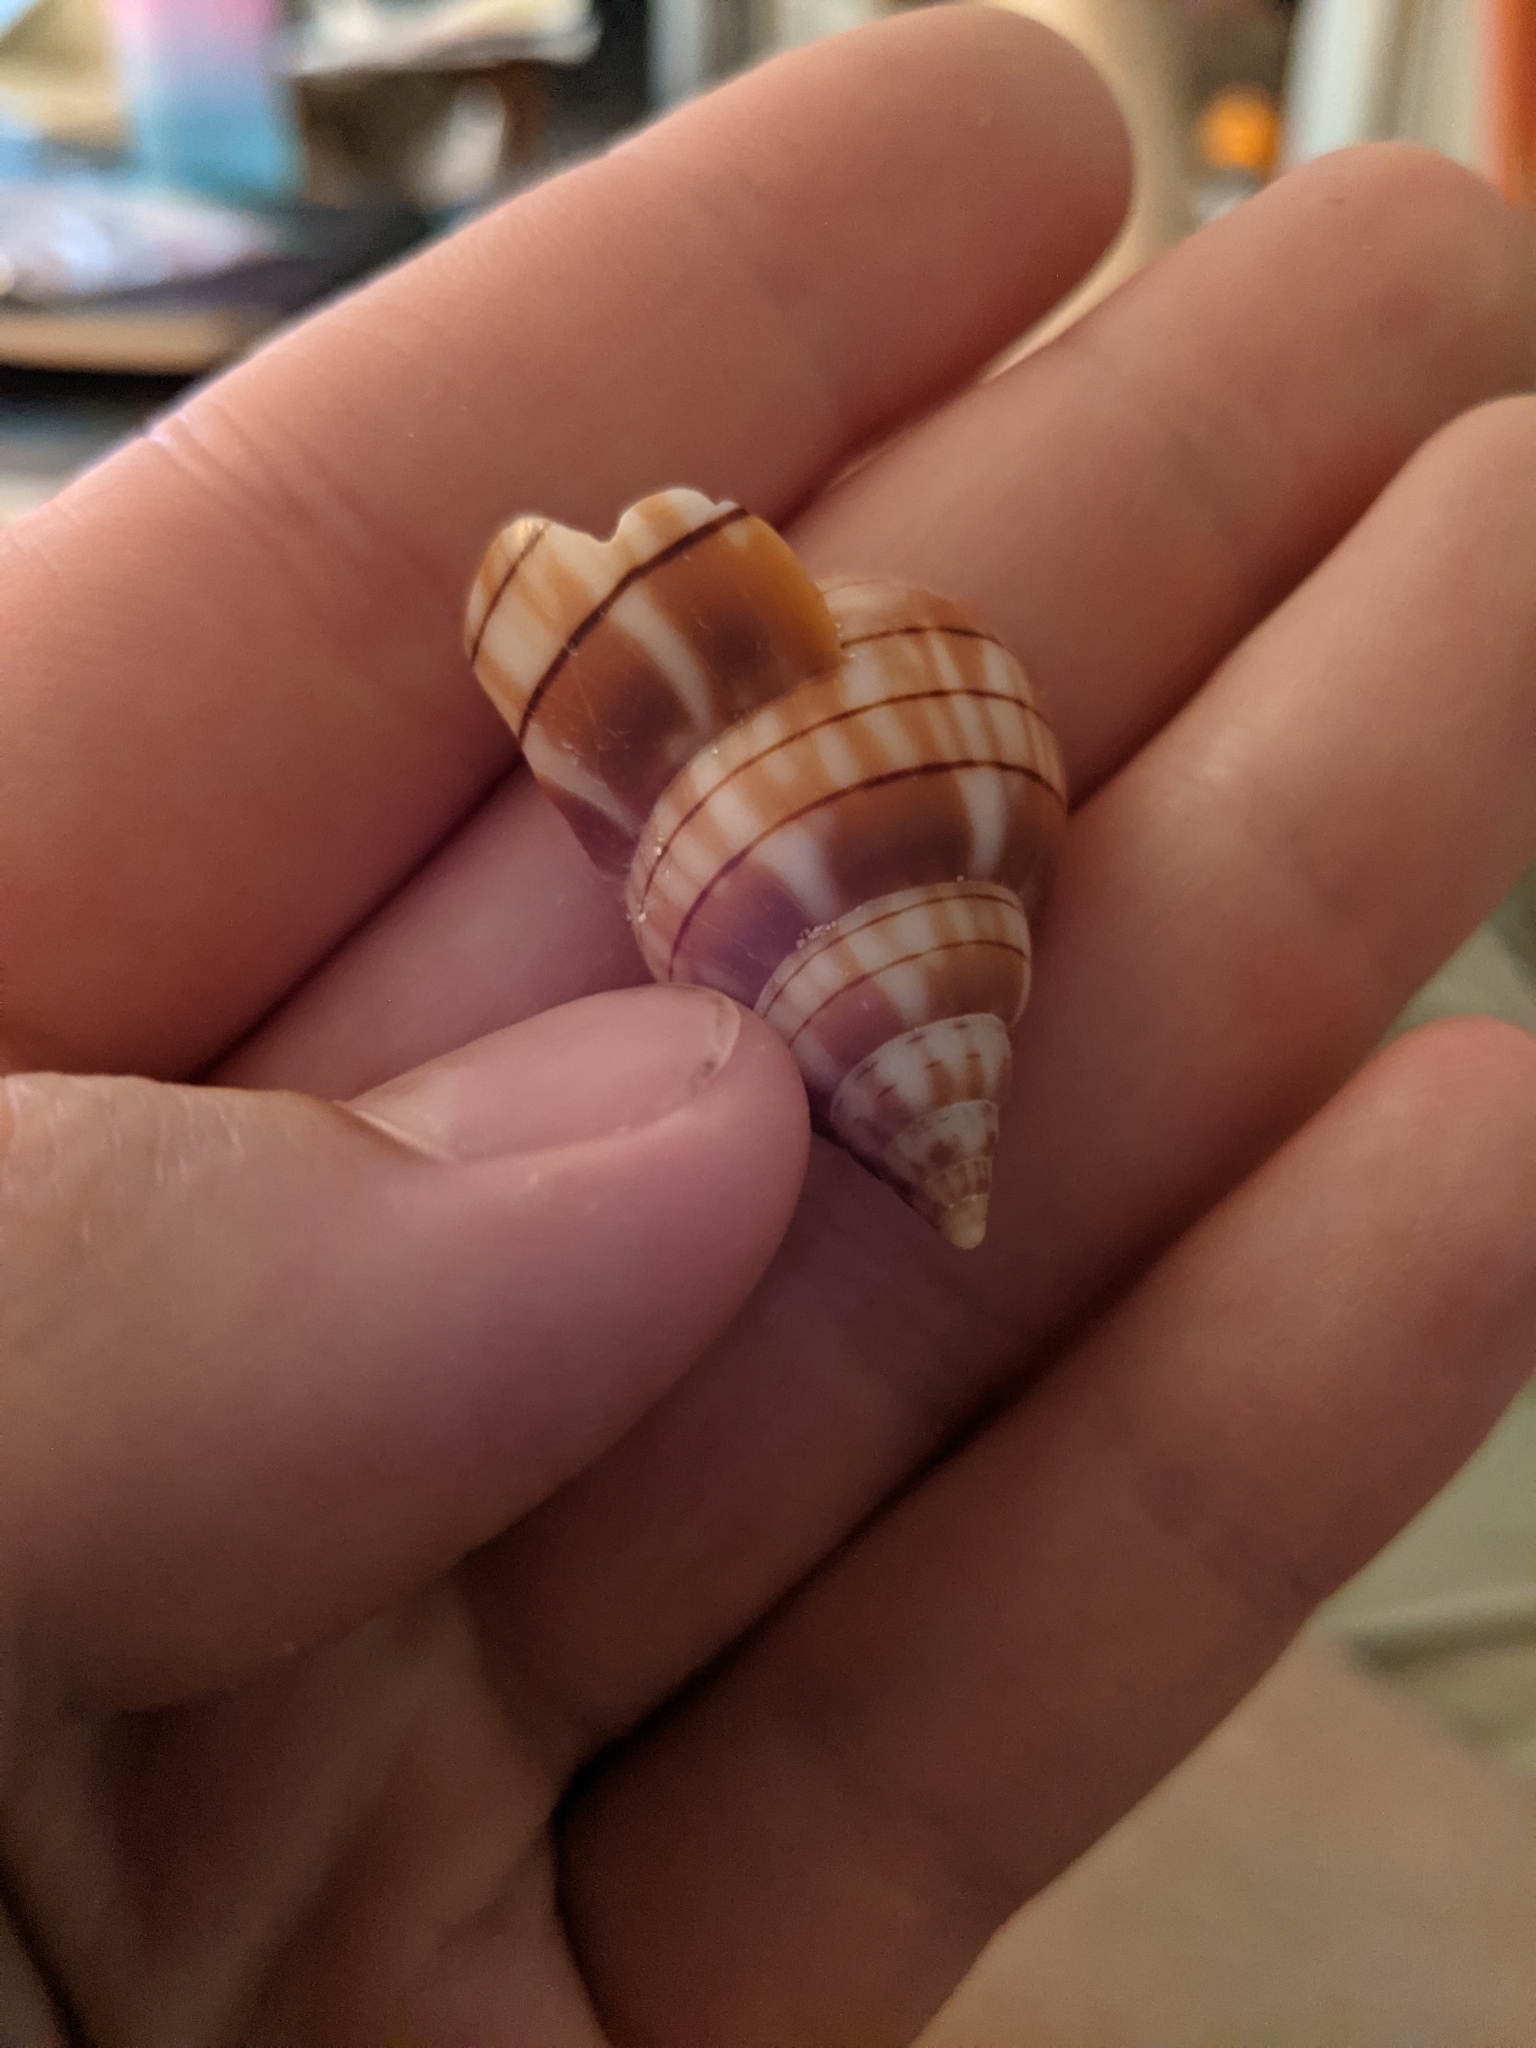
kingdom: Animalia
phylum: Mollusca
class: Gastropoda
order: Neogastropoda
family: Fasciolariidae
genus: Cinctura
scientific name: Cinctura hunteria
